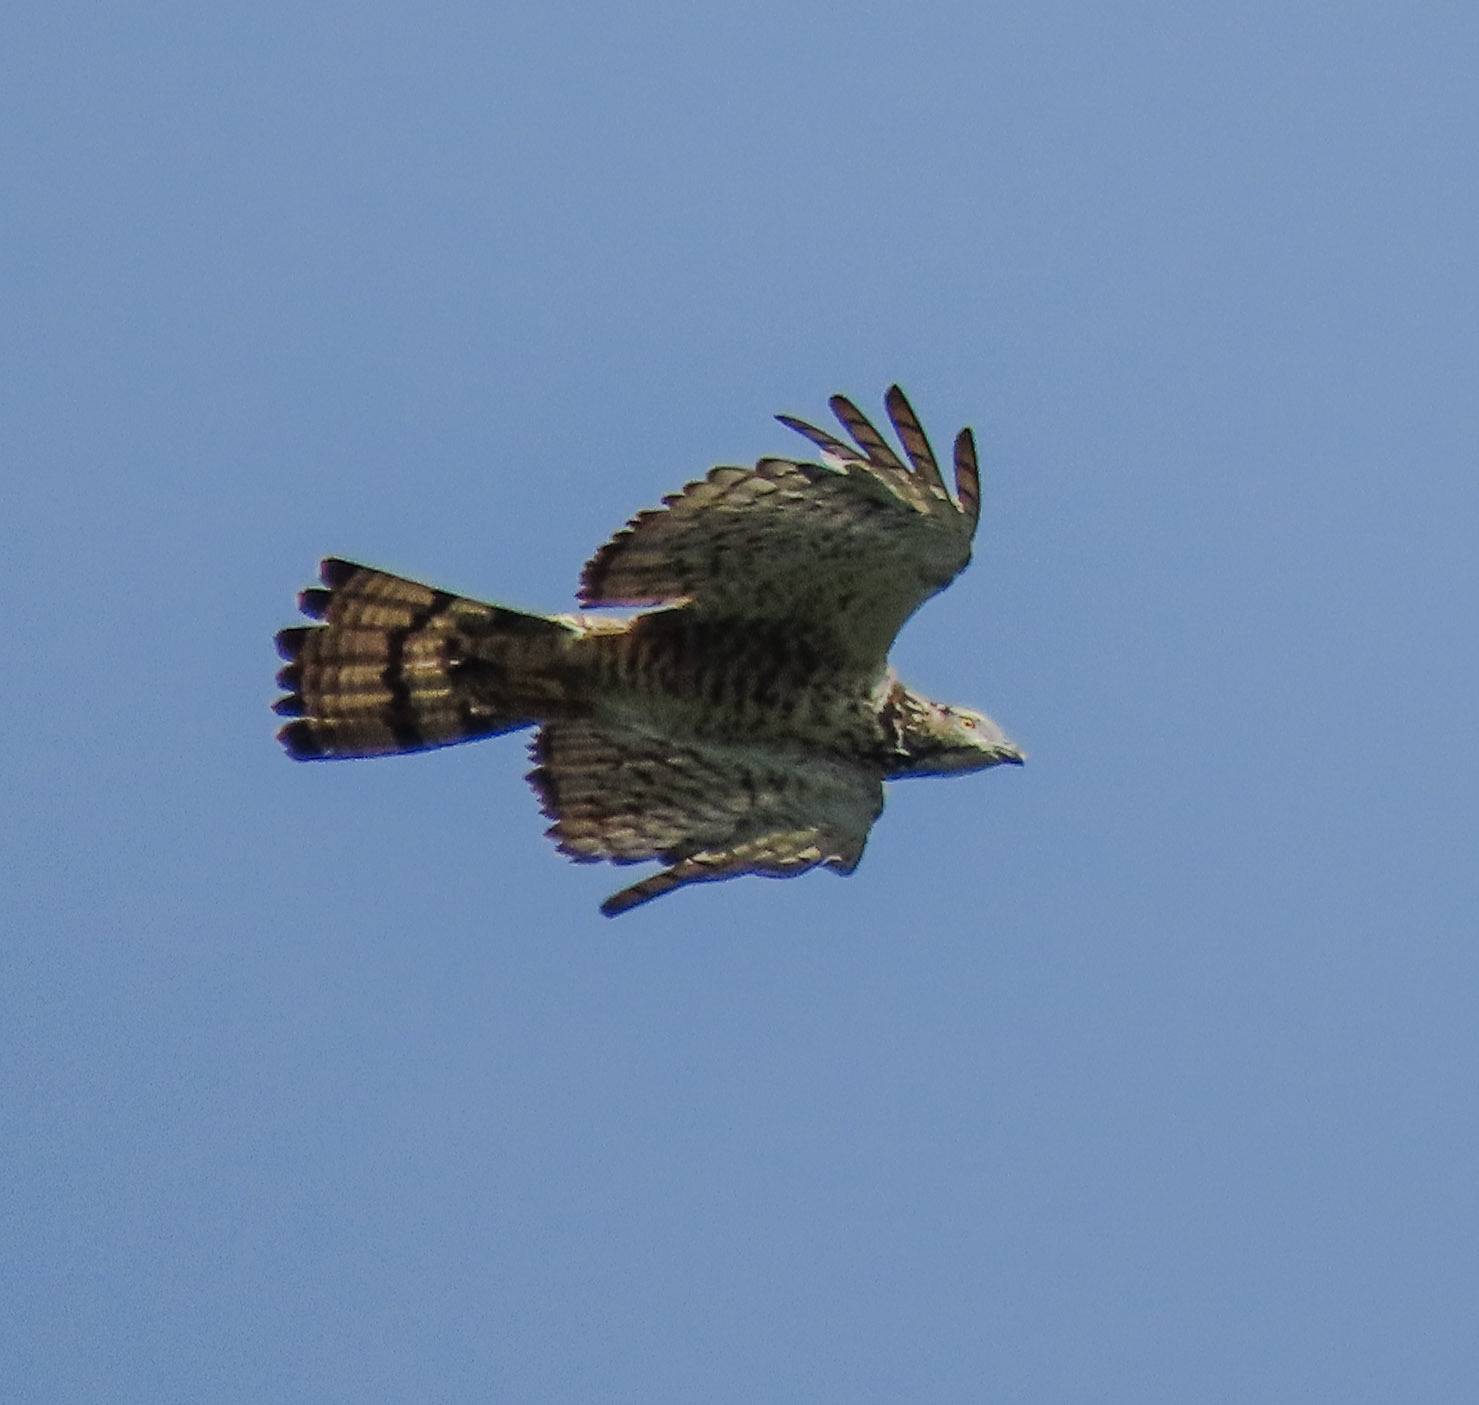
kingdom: Animalia
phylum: Chordata
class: Aves
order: Accipitriformes
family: Accipitridae
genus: Pernis
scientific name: Pernis ptilorhynchus
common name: Crested honey buzzard
